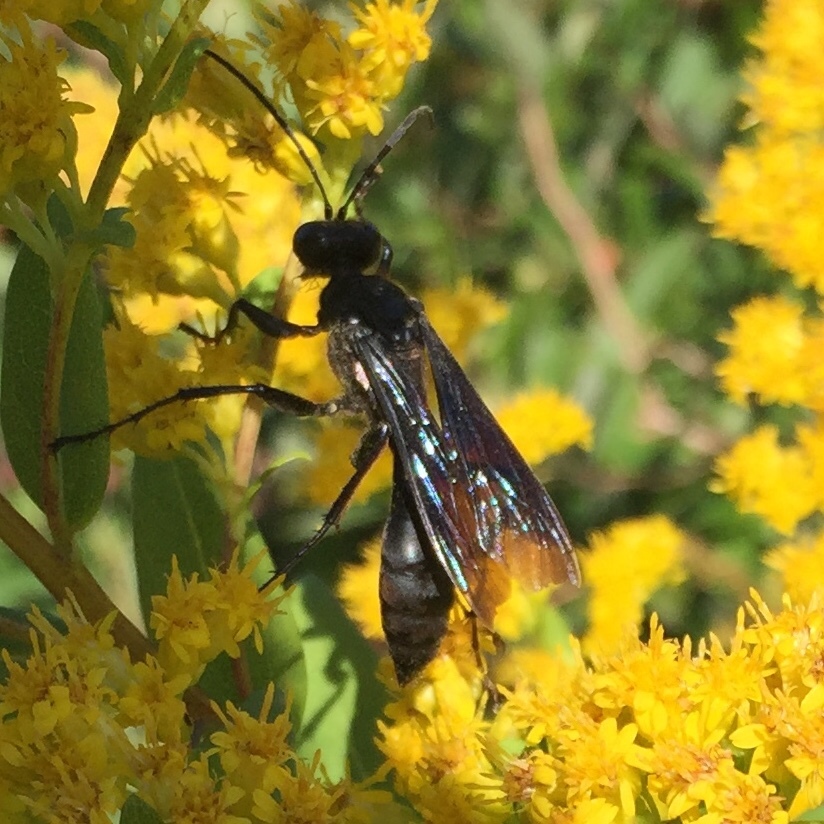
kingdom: Animalia
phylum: Arthropoda
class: Insecta
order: Hymenoptera
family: Sphecidae
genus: Sphex
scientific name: Sphex pensylvanicus
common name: Great black digger wasp
